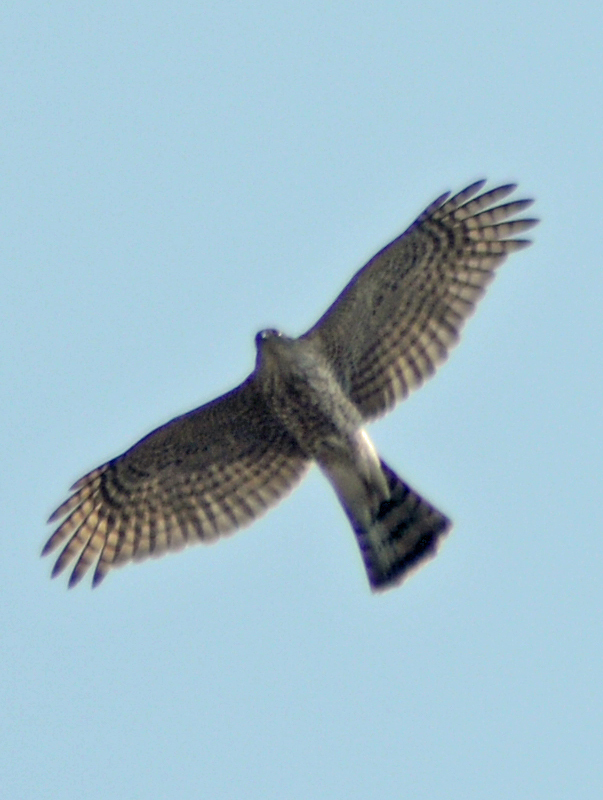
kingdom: Animalia
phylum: Chordata
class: Aves
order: Accipitriformes
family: Accipitridae
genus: Accipiter
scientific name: Accipiter striatus
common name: Sharp-shinned hawk
